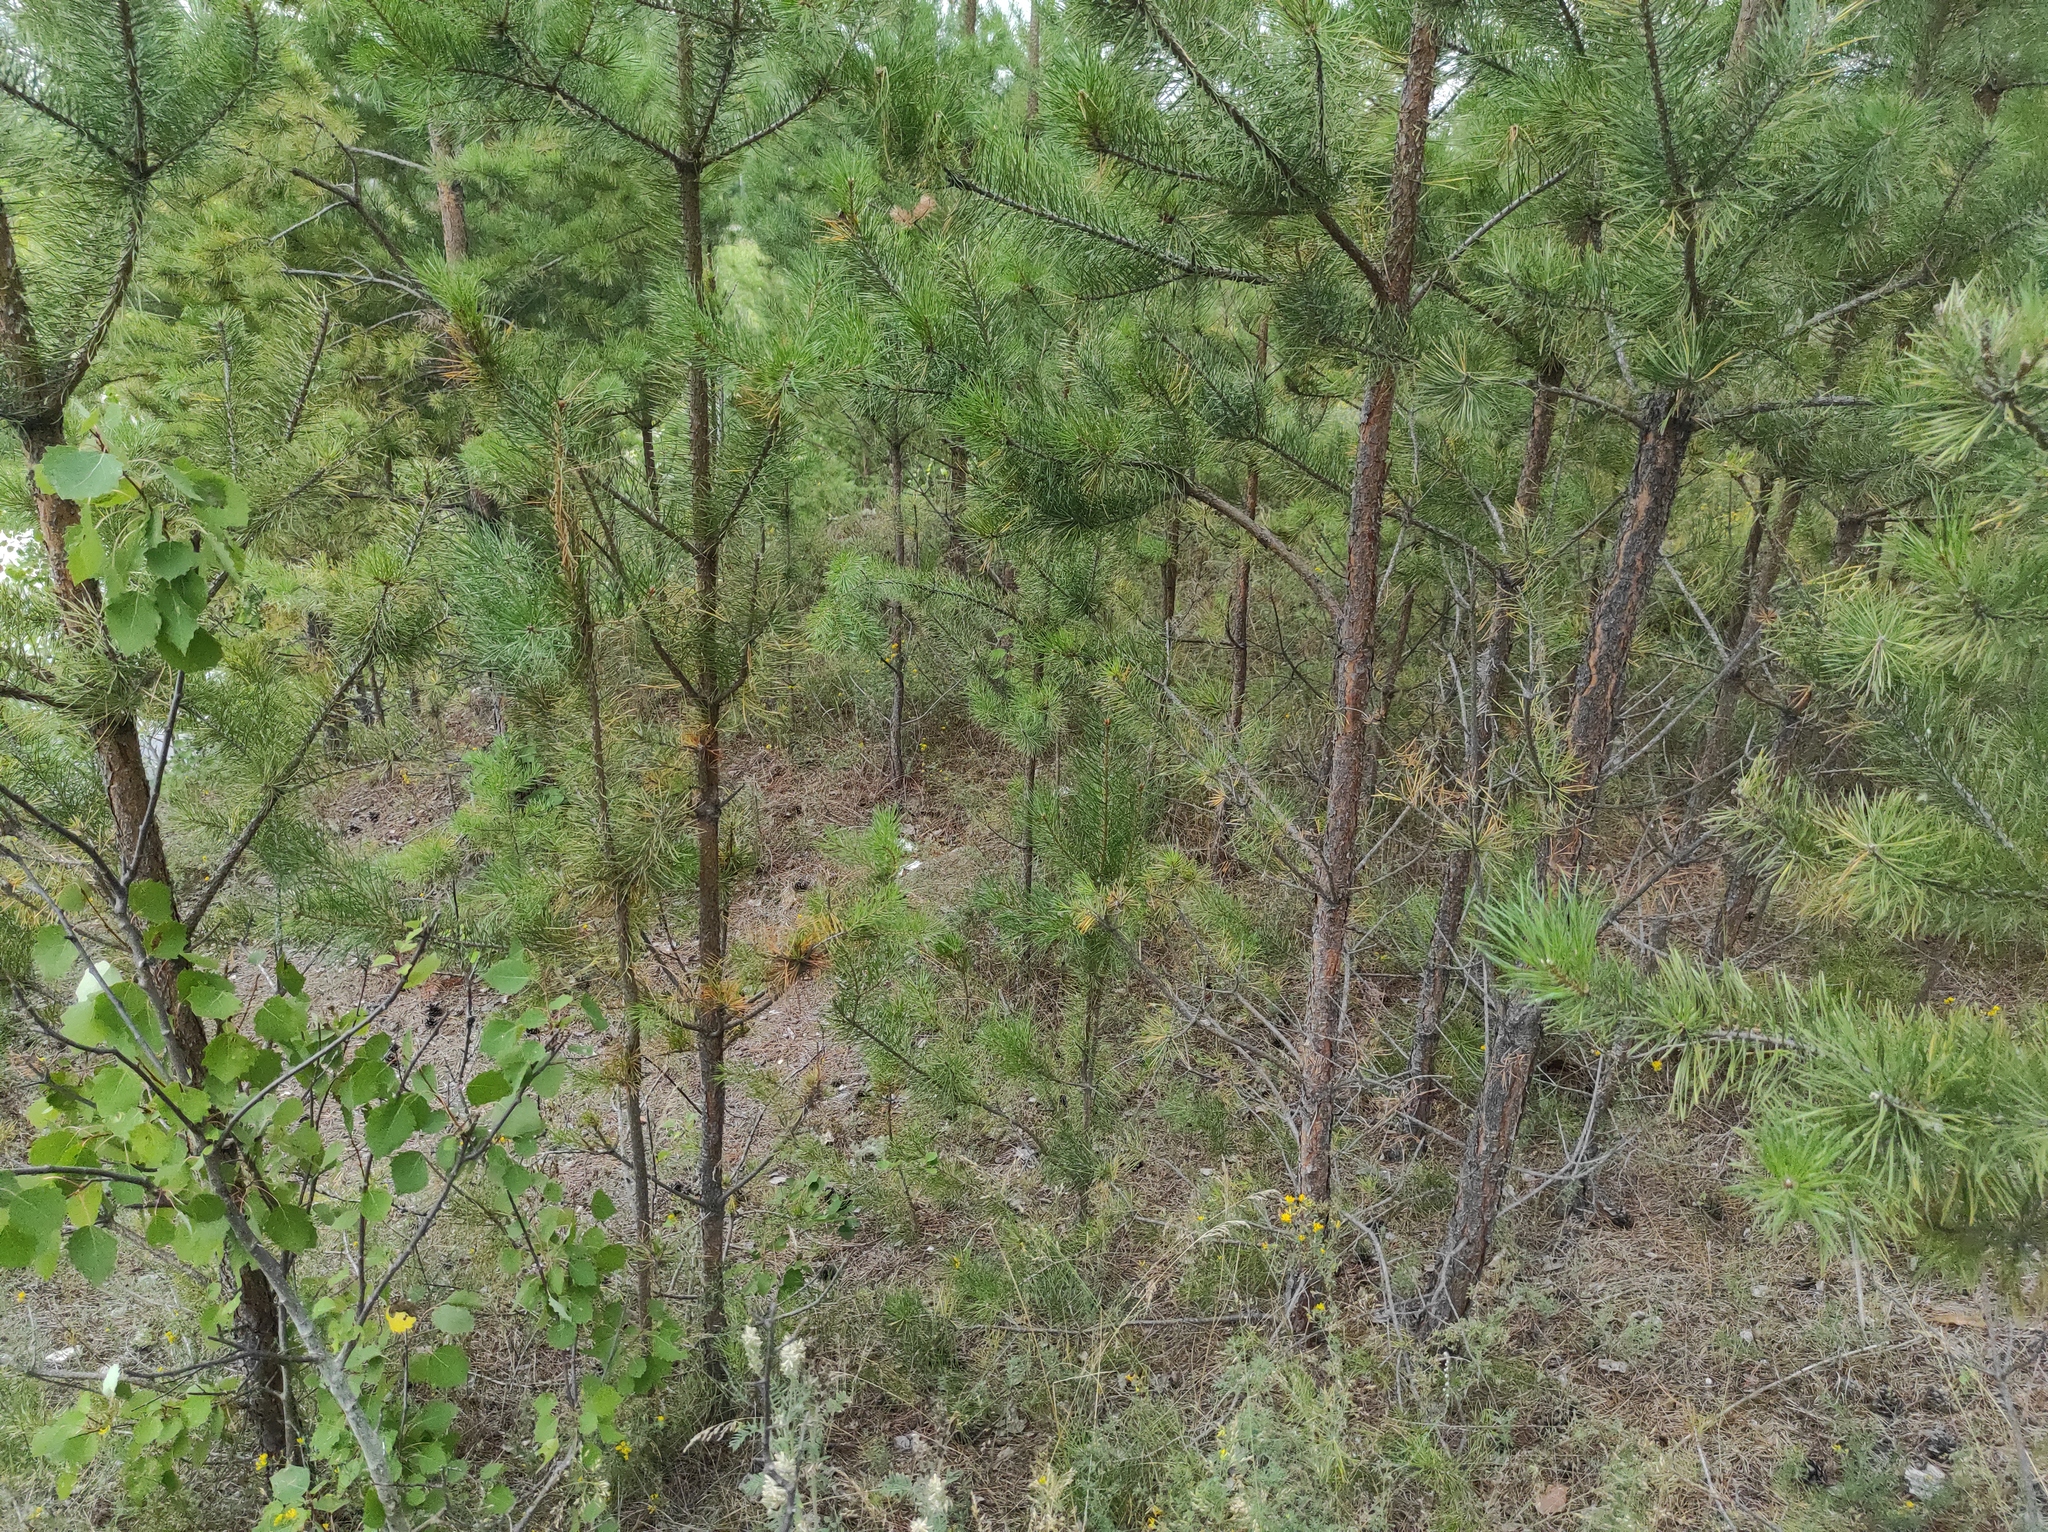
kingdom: Plantae
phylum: Tracheophyta
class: Pinopsida
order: Pinales
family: Pinaceae
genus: Pinus
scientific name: Pinus sylvestris
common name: Scots pine
